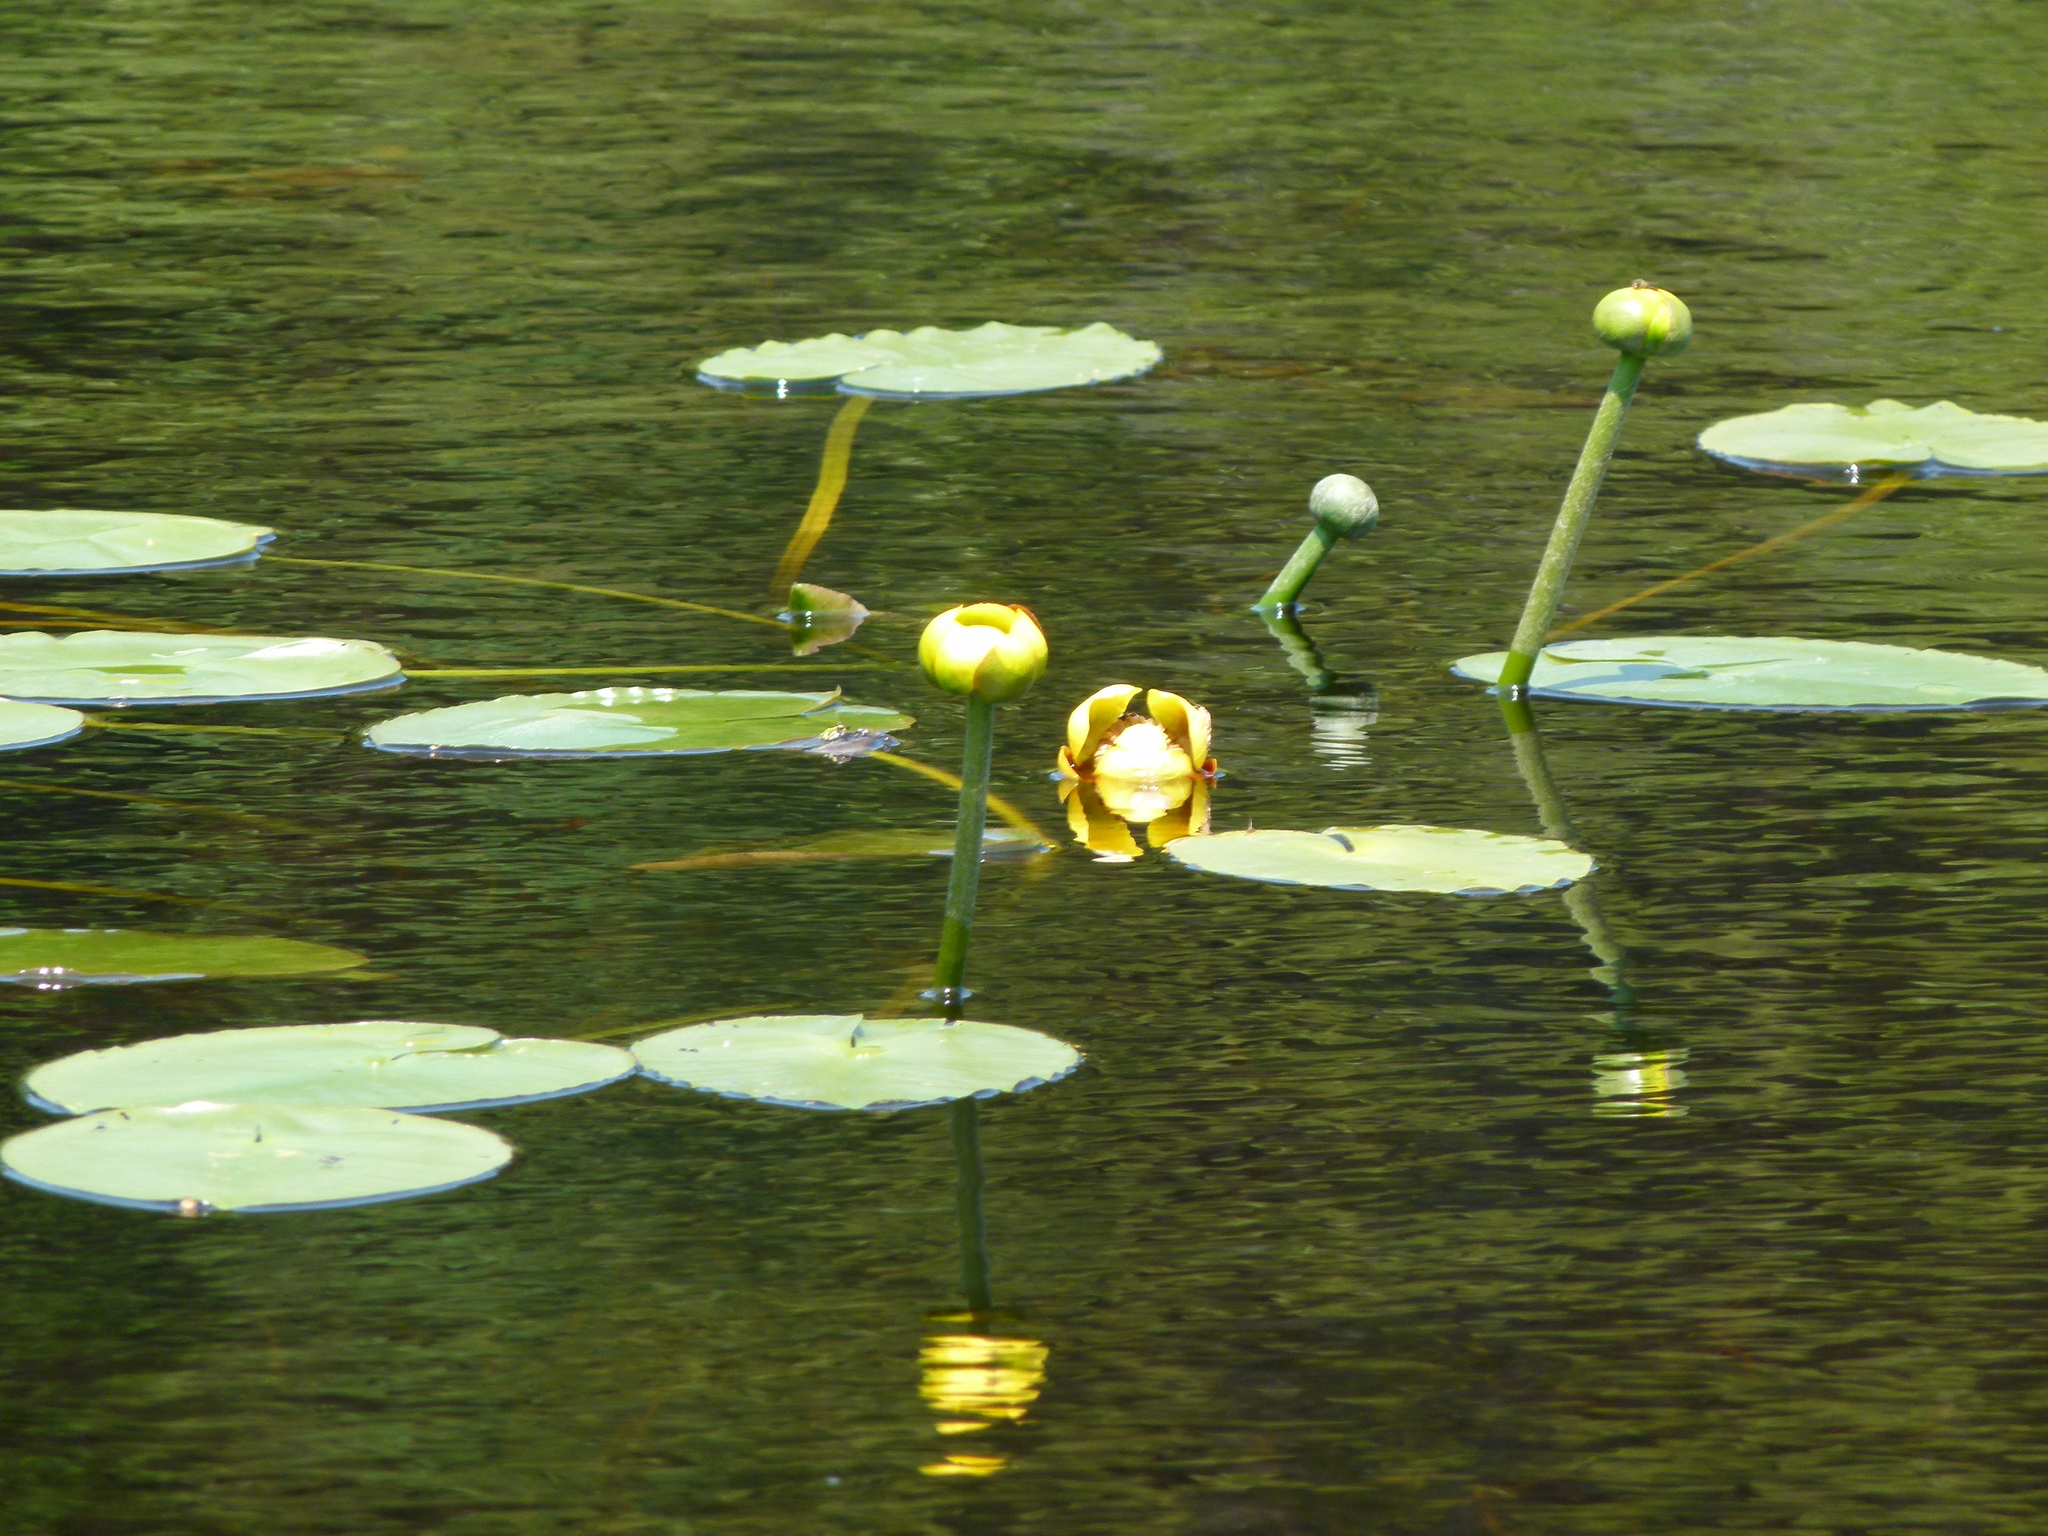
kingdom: Plantae
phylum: Tracheophyta
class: Magnoliopsida
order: Nymphaeales
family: Nymphaeaceae
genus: Nuphar
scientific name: Nuphar variegata
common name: Beaver-root
